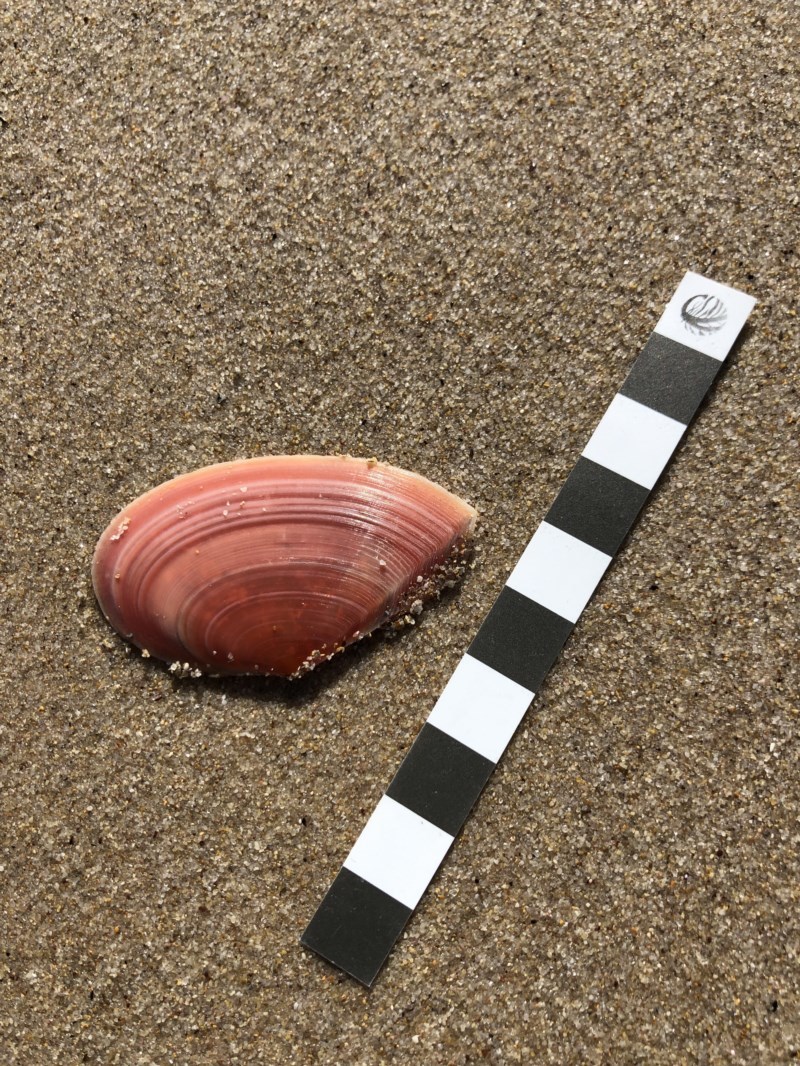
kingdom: Animalia
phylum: Mollusca
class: Bivalvia
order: Cardiida
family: Tellinidae
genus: Tellinota
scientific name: Tellinota albinella
